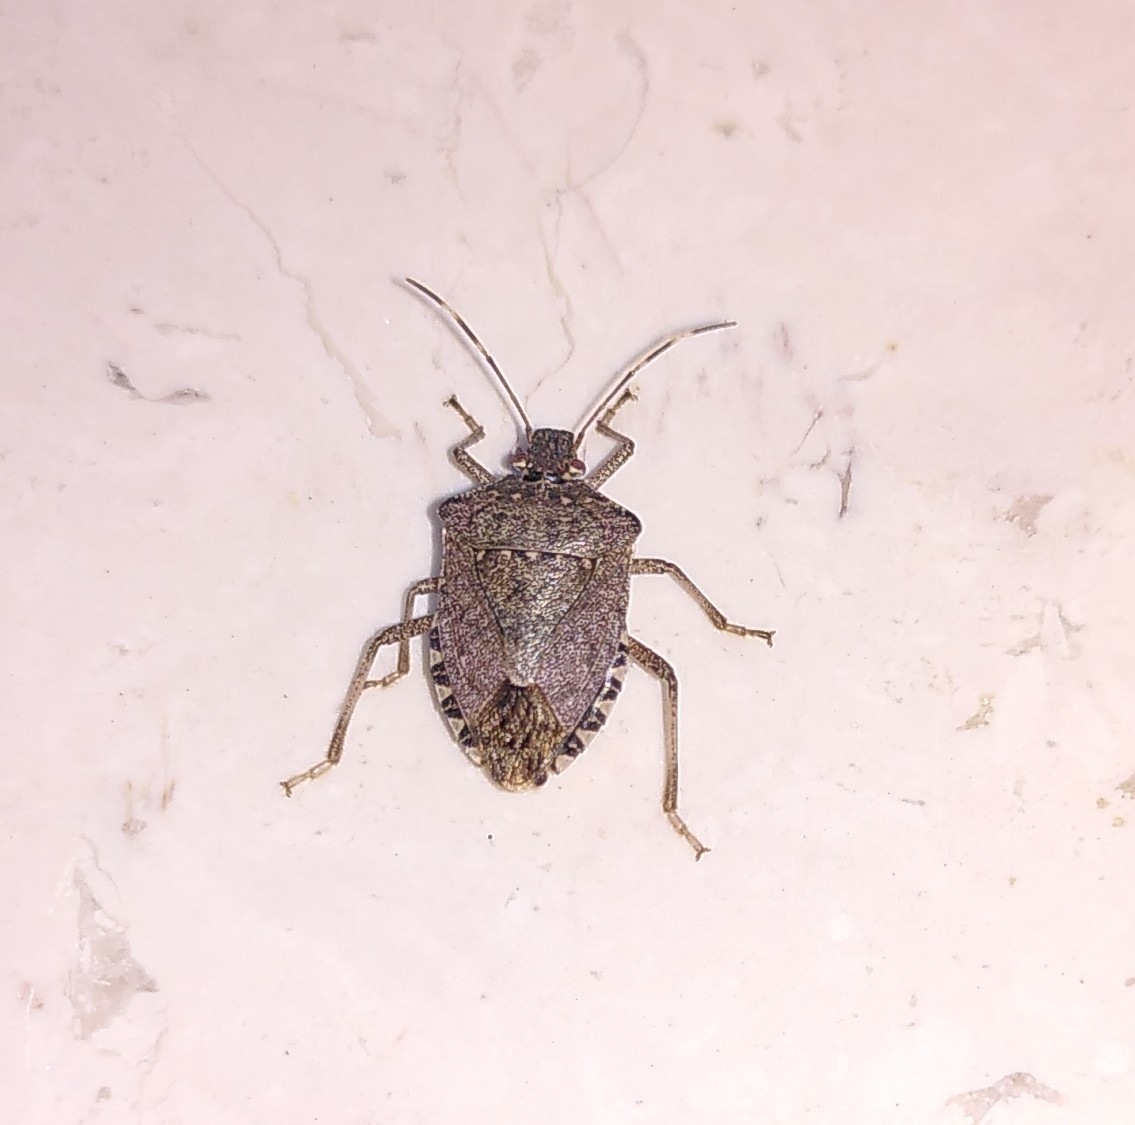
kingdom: Animalia
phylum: Arthropoda
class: Insecta
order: Hemiptera
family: Pentatomidae
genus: Halyomorpha
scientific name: Halyomorpha halys
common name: Brown marmorated stink bug
